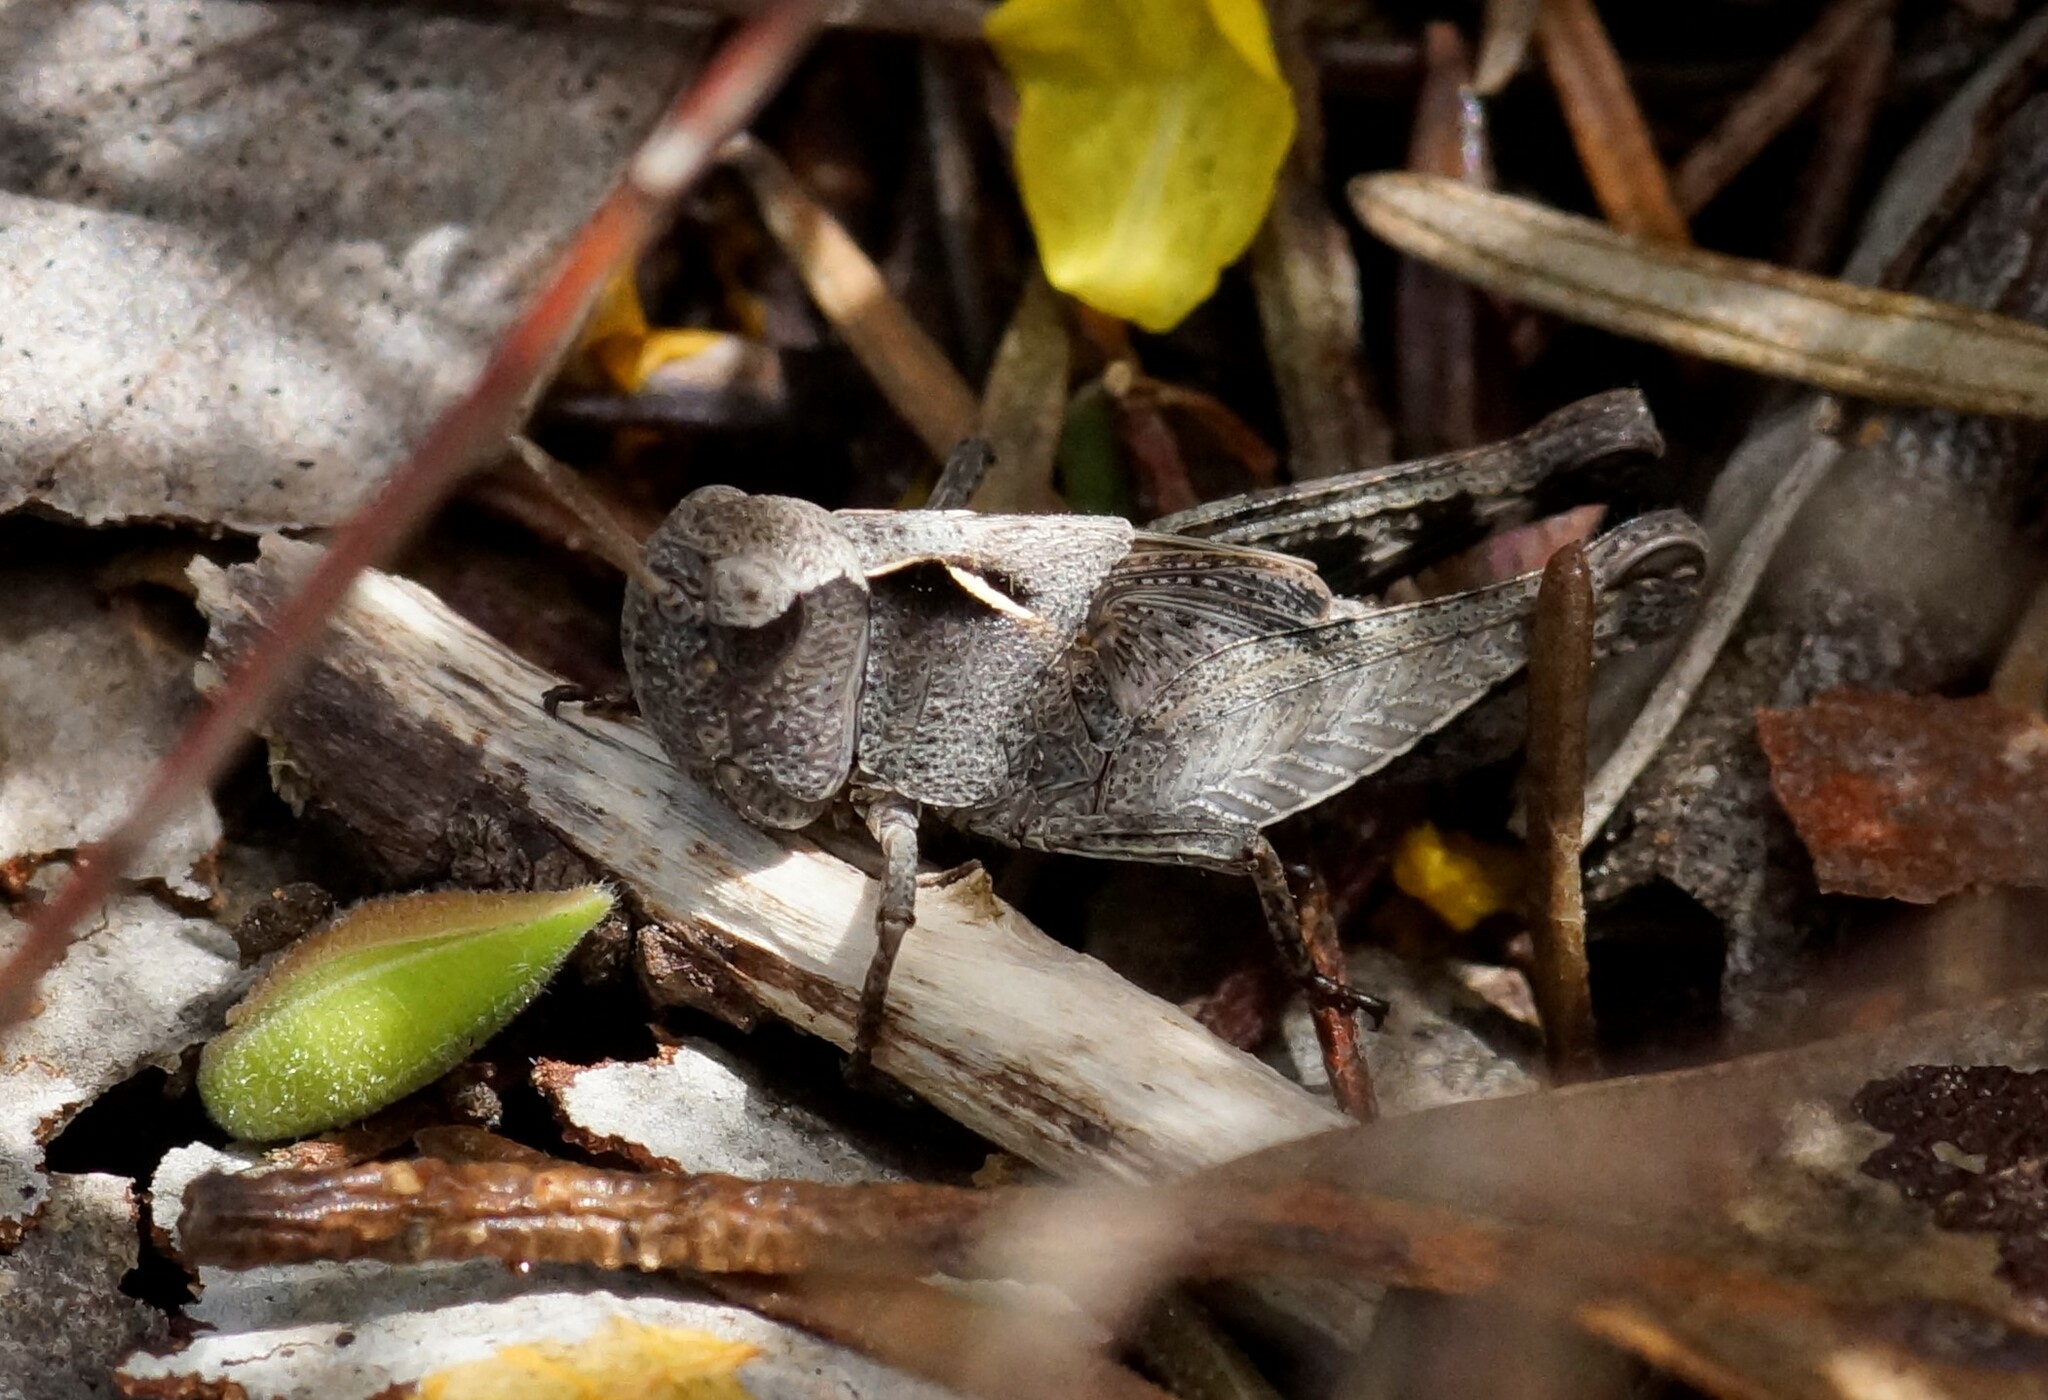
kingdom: Animalia
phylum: Arthropoda
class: Insecta
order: Orthoptera
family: Acrididae
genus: Cryptobothrus
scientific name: Cryptobothrus chrysophorus
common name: Golden bandwing
